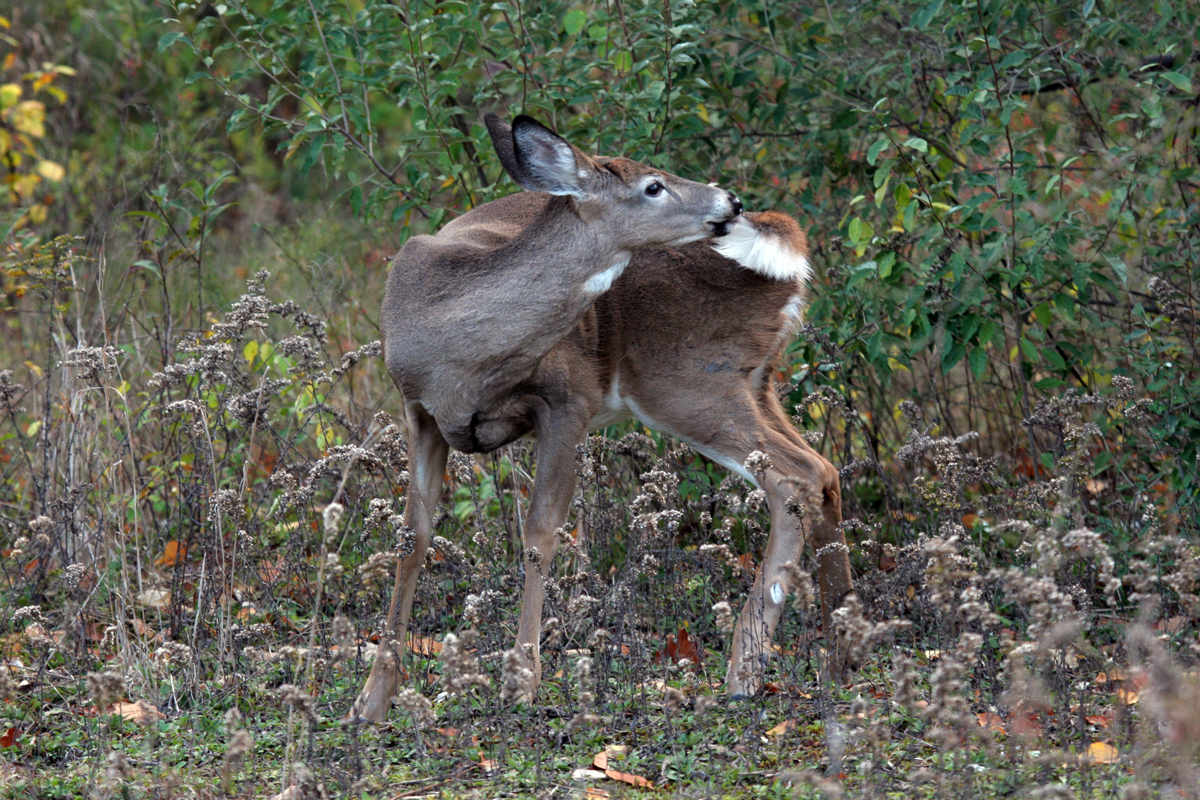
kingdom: Animalia
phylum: Chordata
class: Mammalia
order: Artiodactyla
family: Cervidae
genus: Odocoileus
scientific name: Odocoileus virginianus
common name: White-tailed deer
